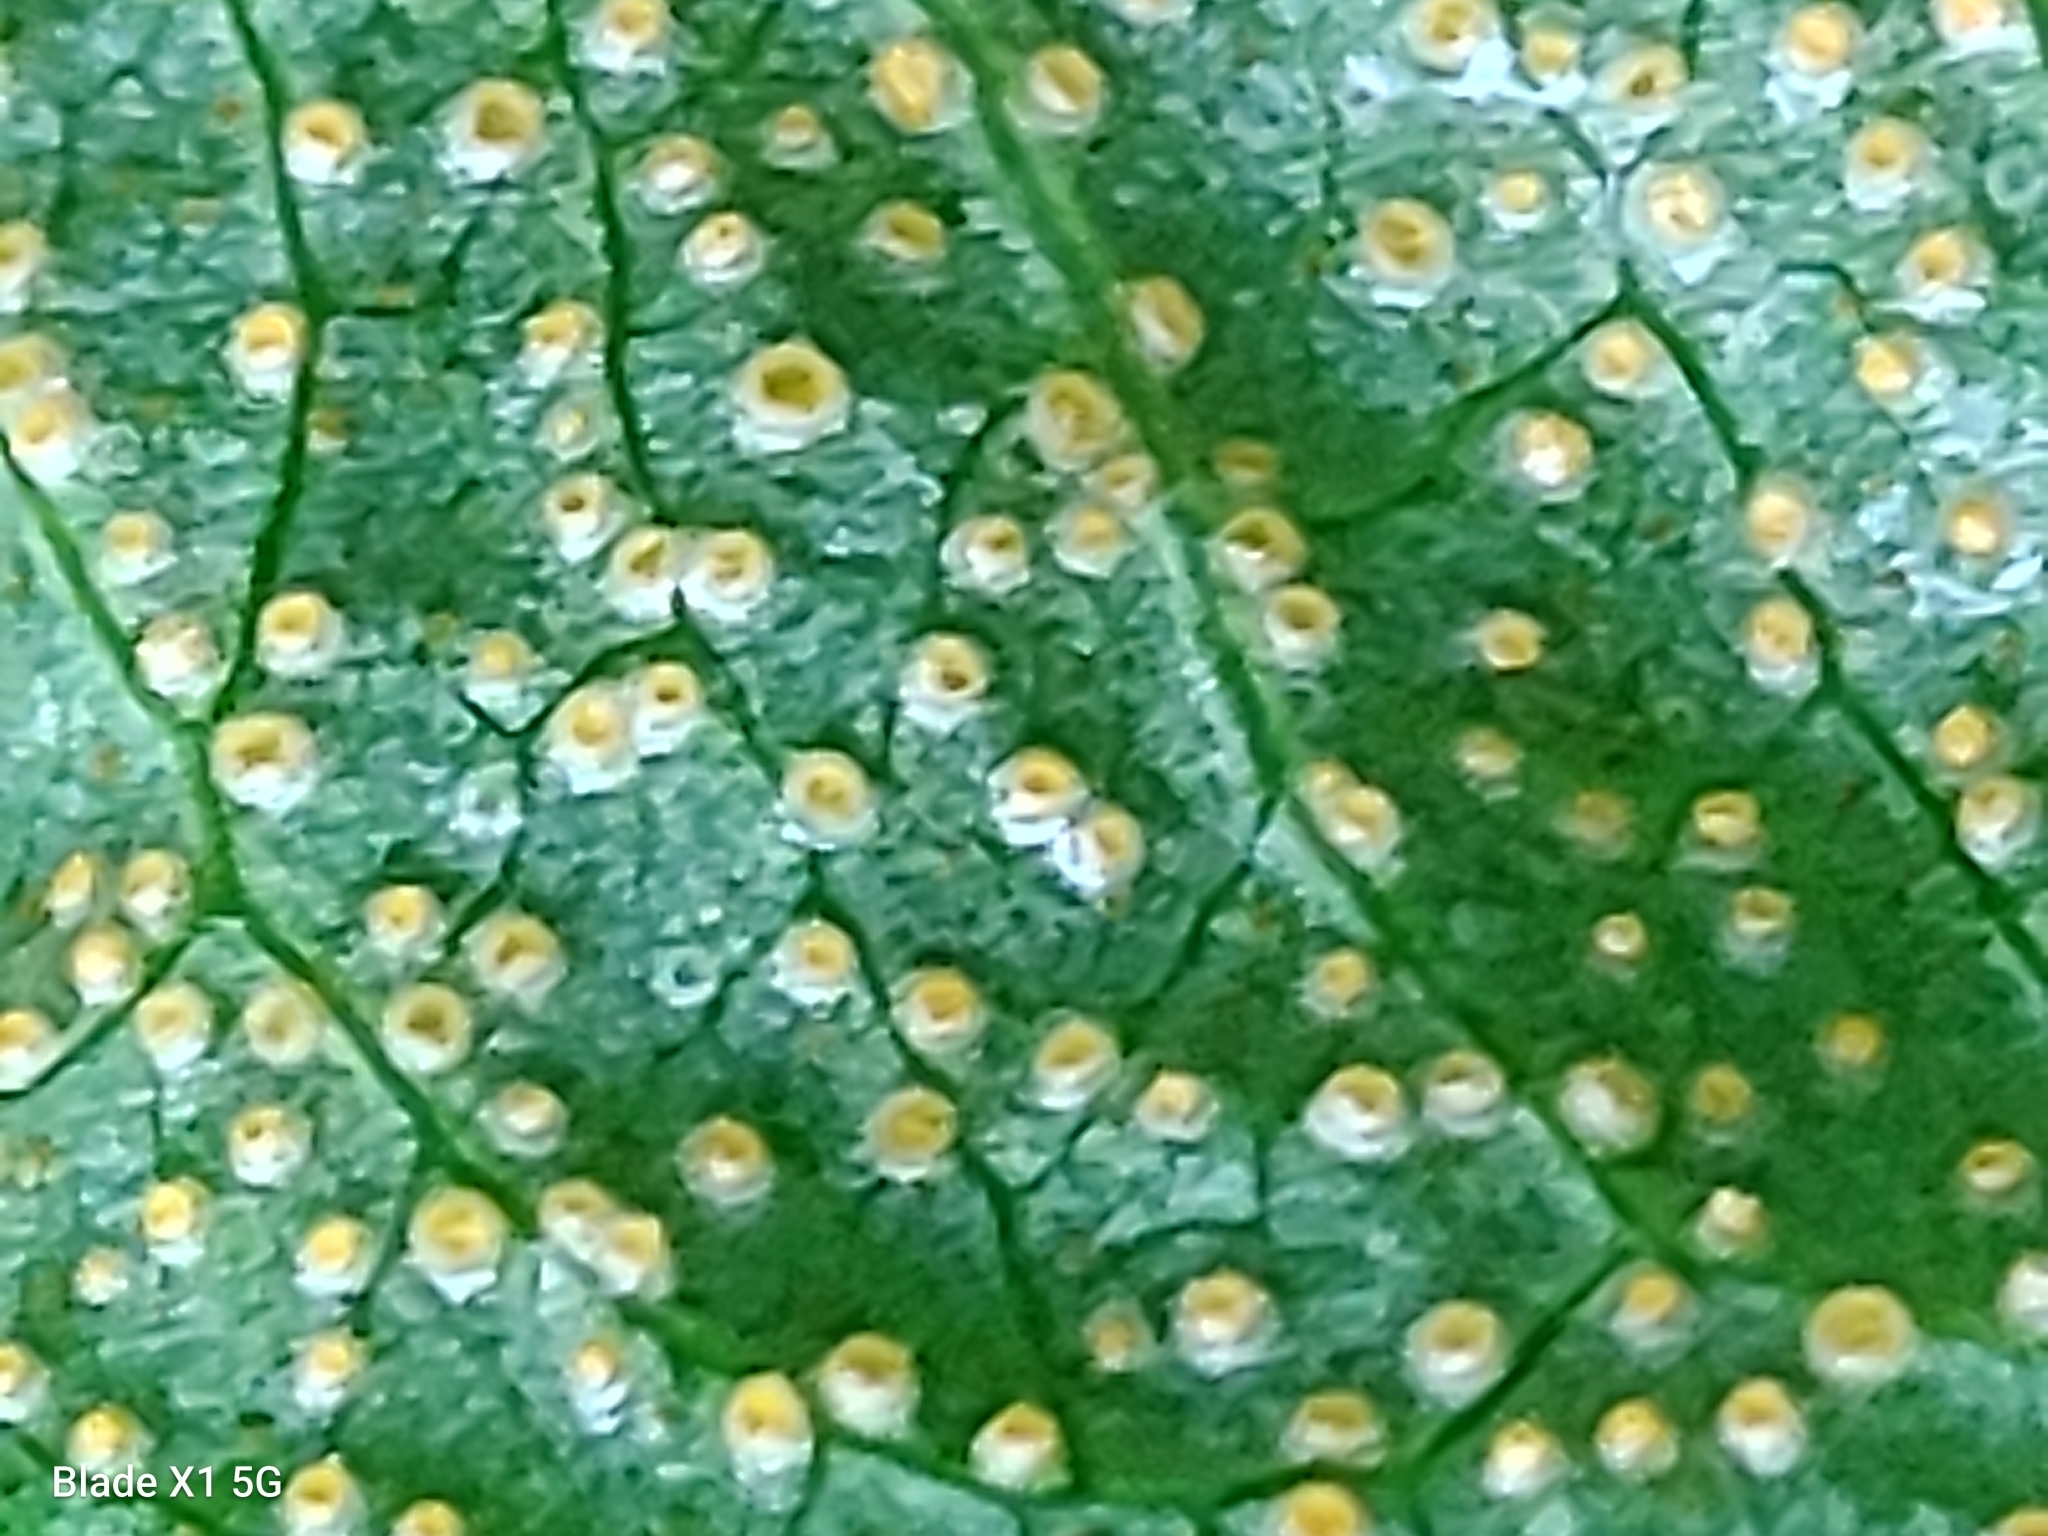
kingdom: Fungi
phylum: Basidiomycota
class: Pucciniomycetes
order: Pucciniales
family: Pucciniaceae
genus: Uromyces
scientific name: Uromyces ari-triphylli
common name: Jack-in-the-pulpit rust
